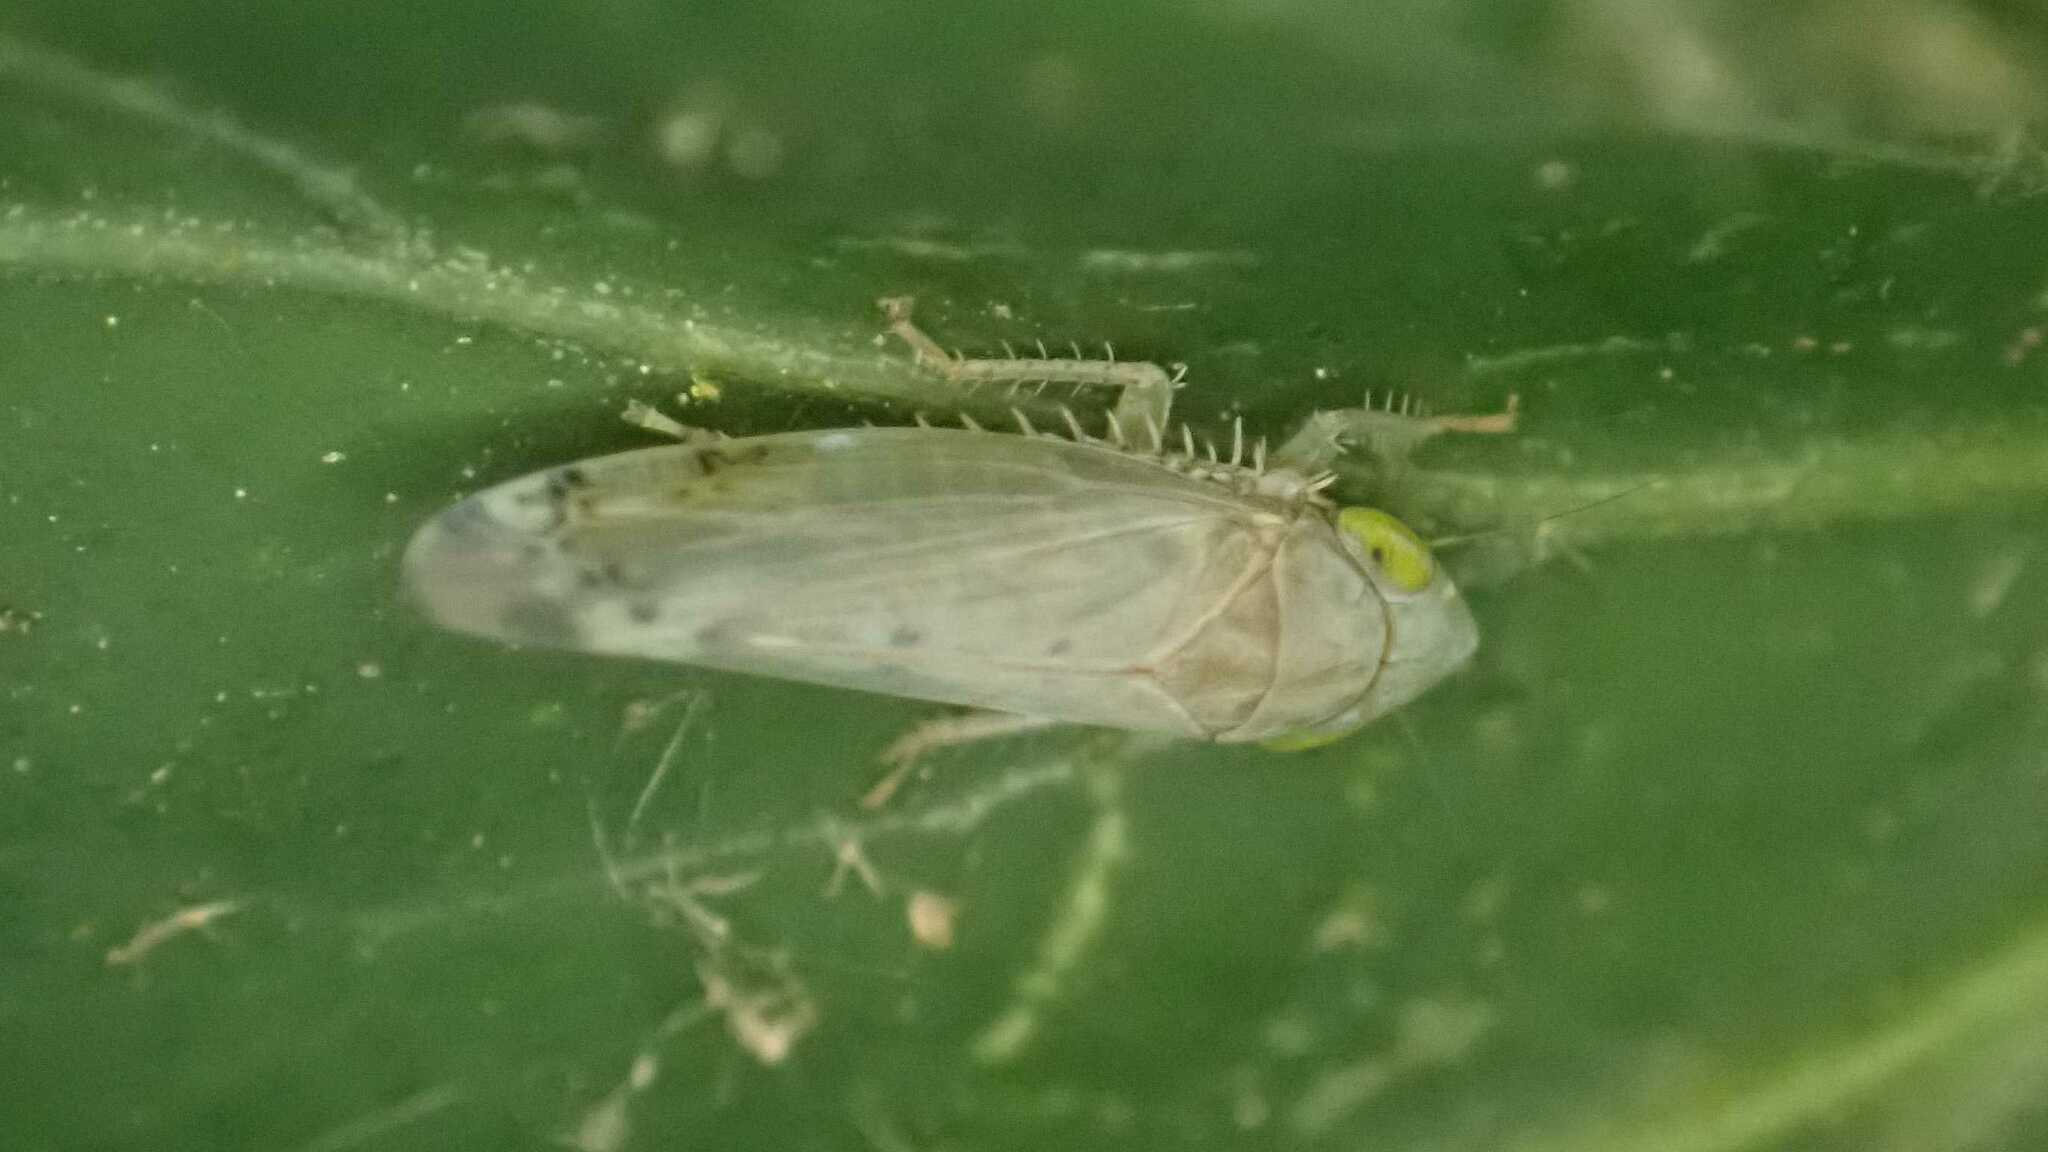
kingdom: Animalia
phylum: Arthropoda
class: Insecta
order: Hemiptera
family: Cicadellidae
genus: Synophropsis
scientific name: Synophropsis lauri
